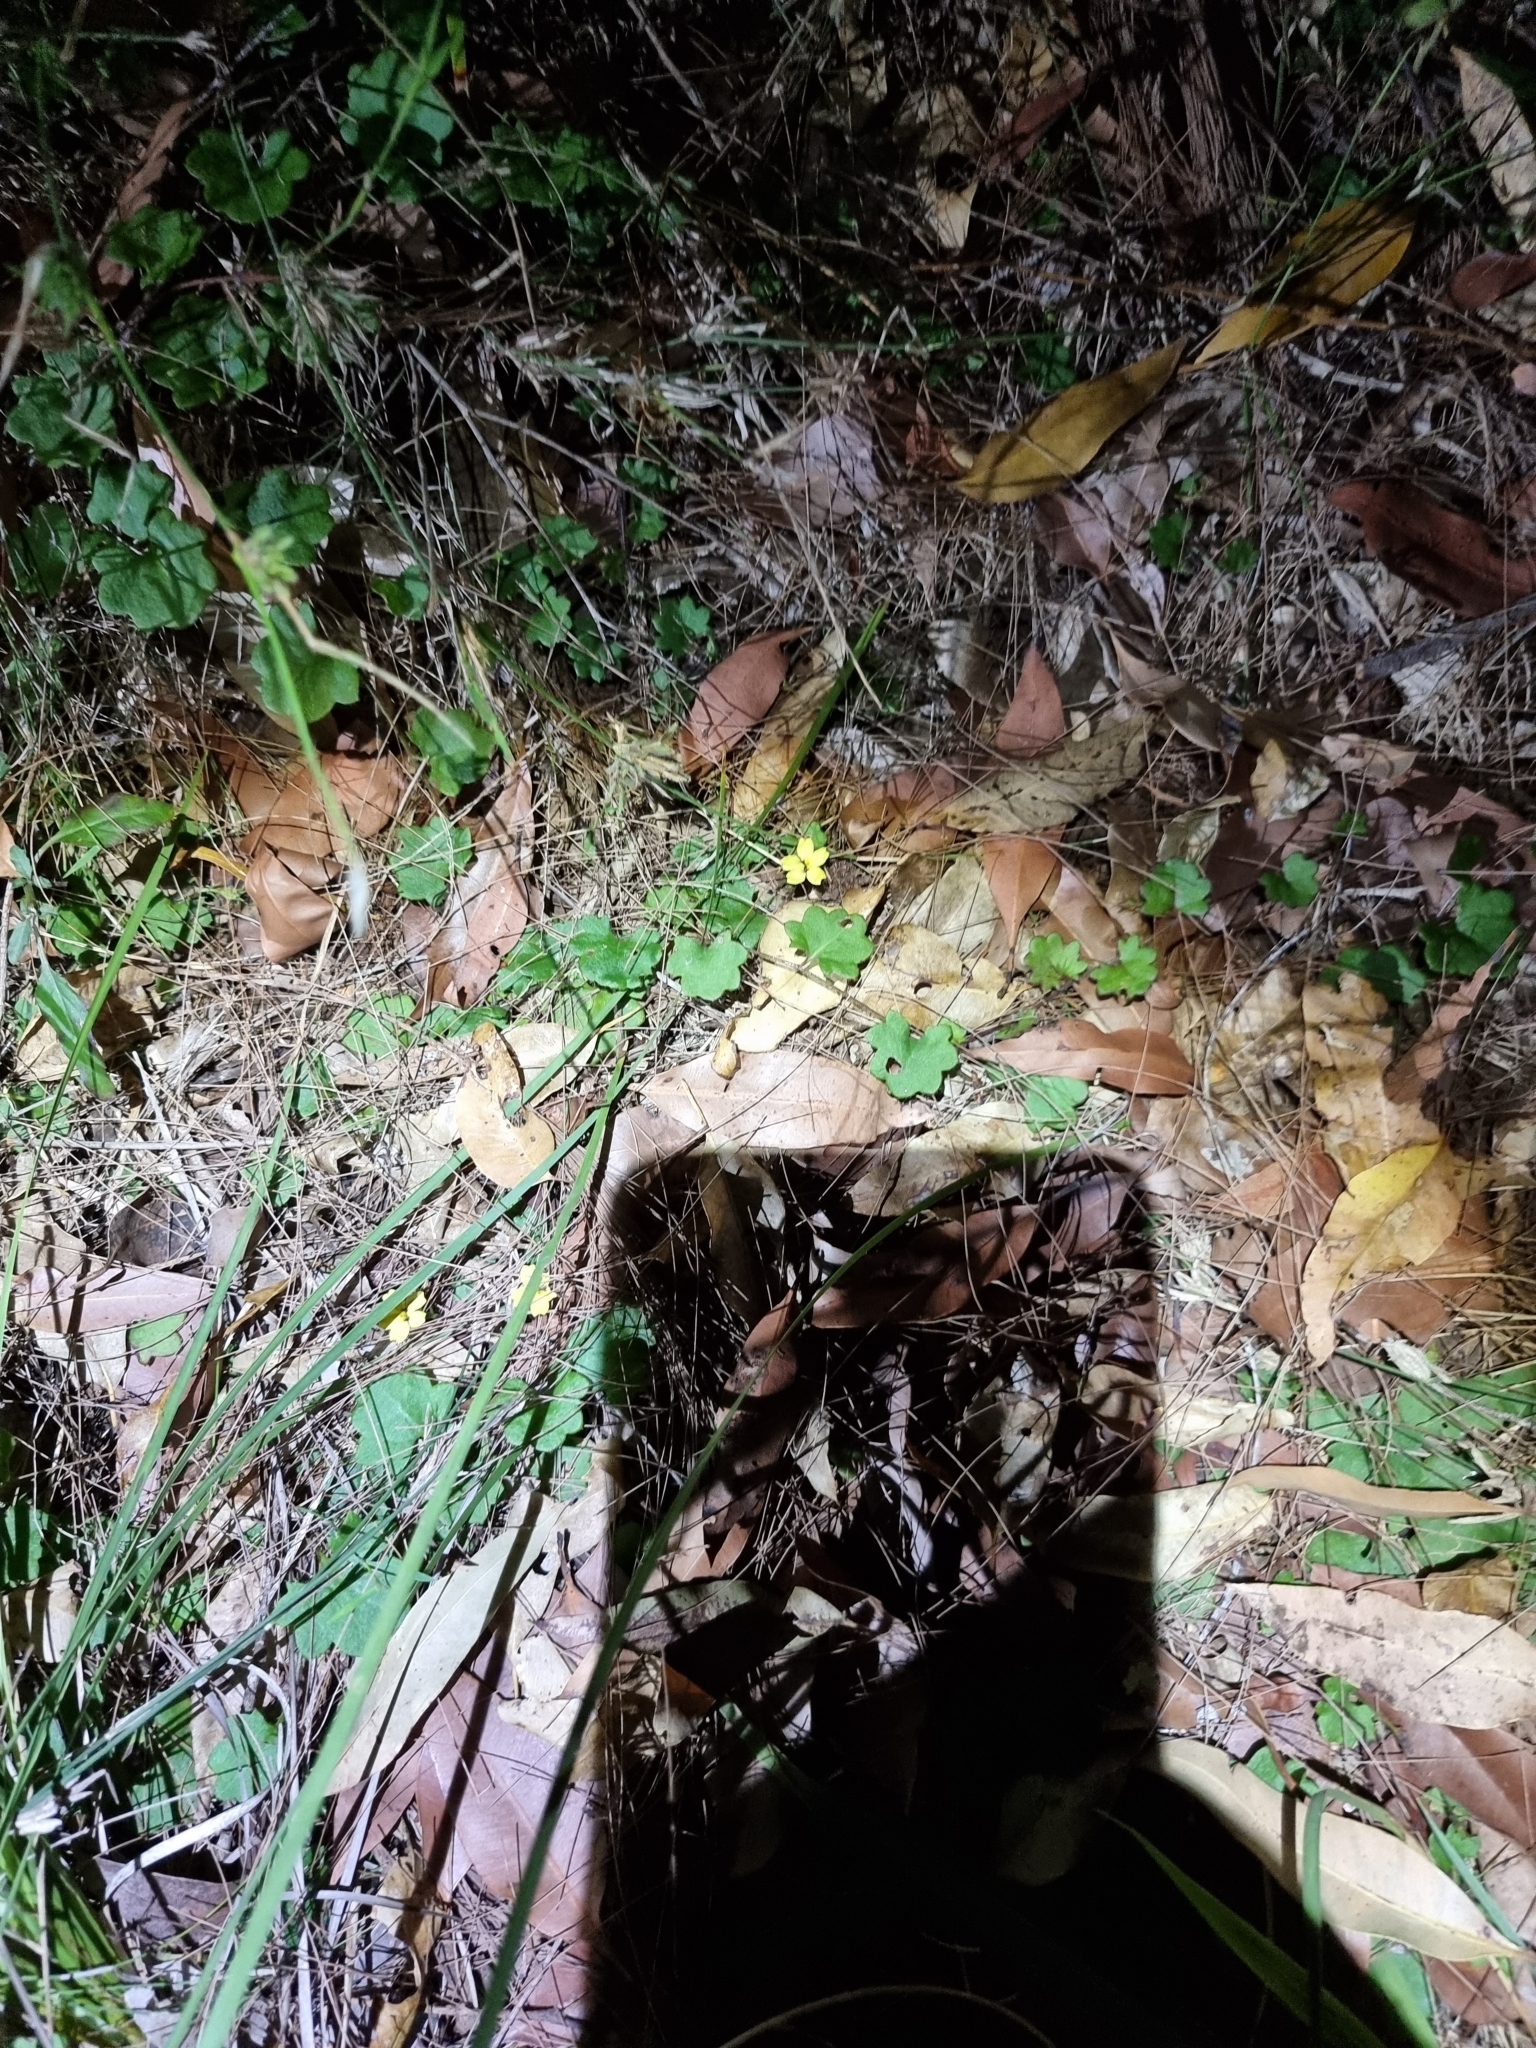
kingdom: Plantae
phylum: Tracheophyta
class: Magnoliopsida
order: Asterales
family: Goodeniaceae
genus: Goodenia
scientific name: Goodenia rotundifolia
